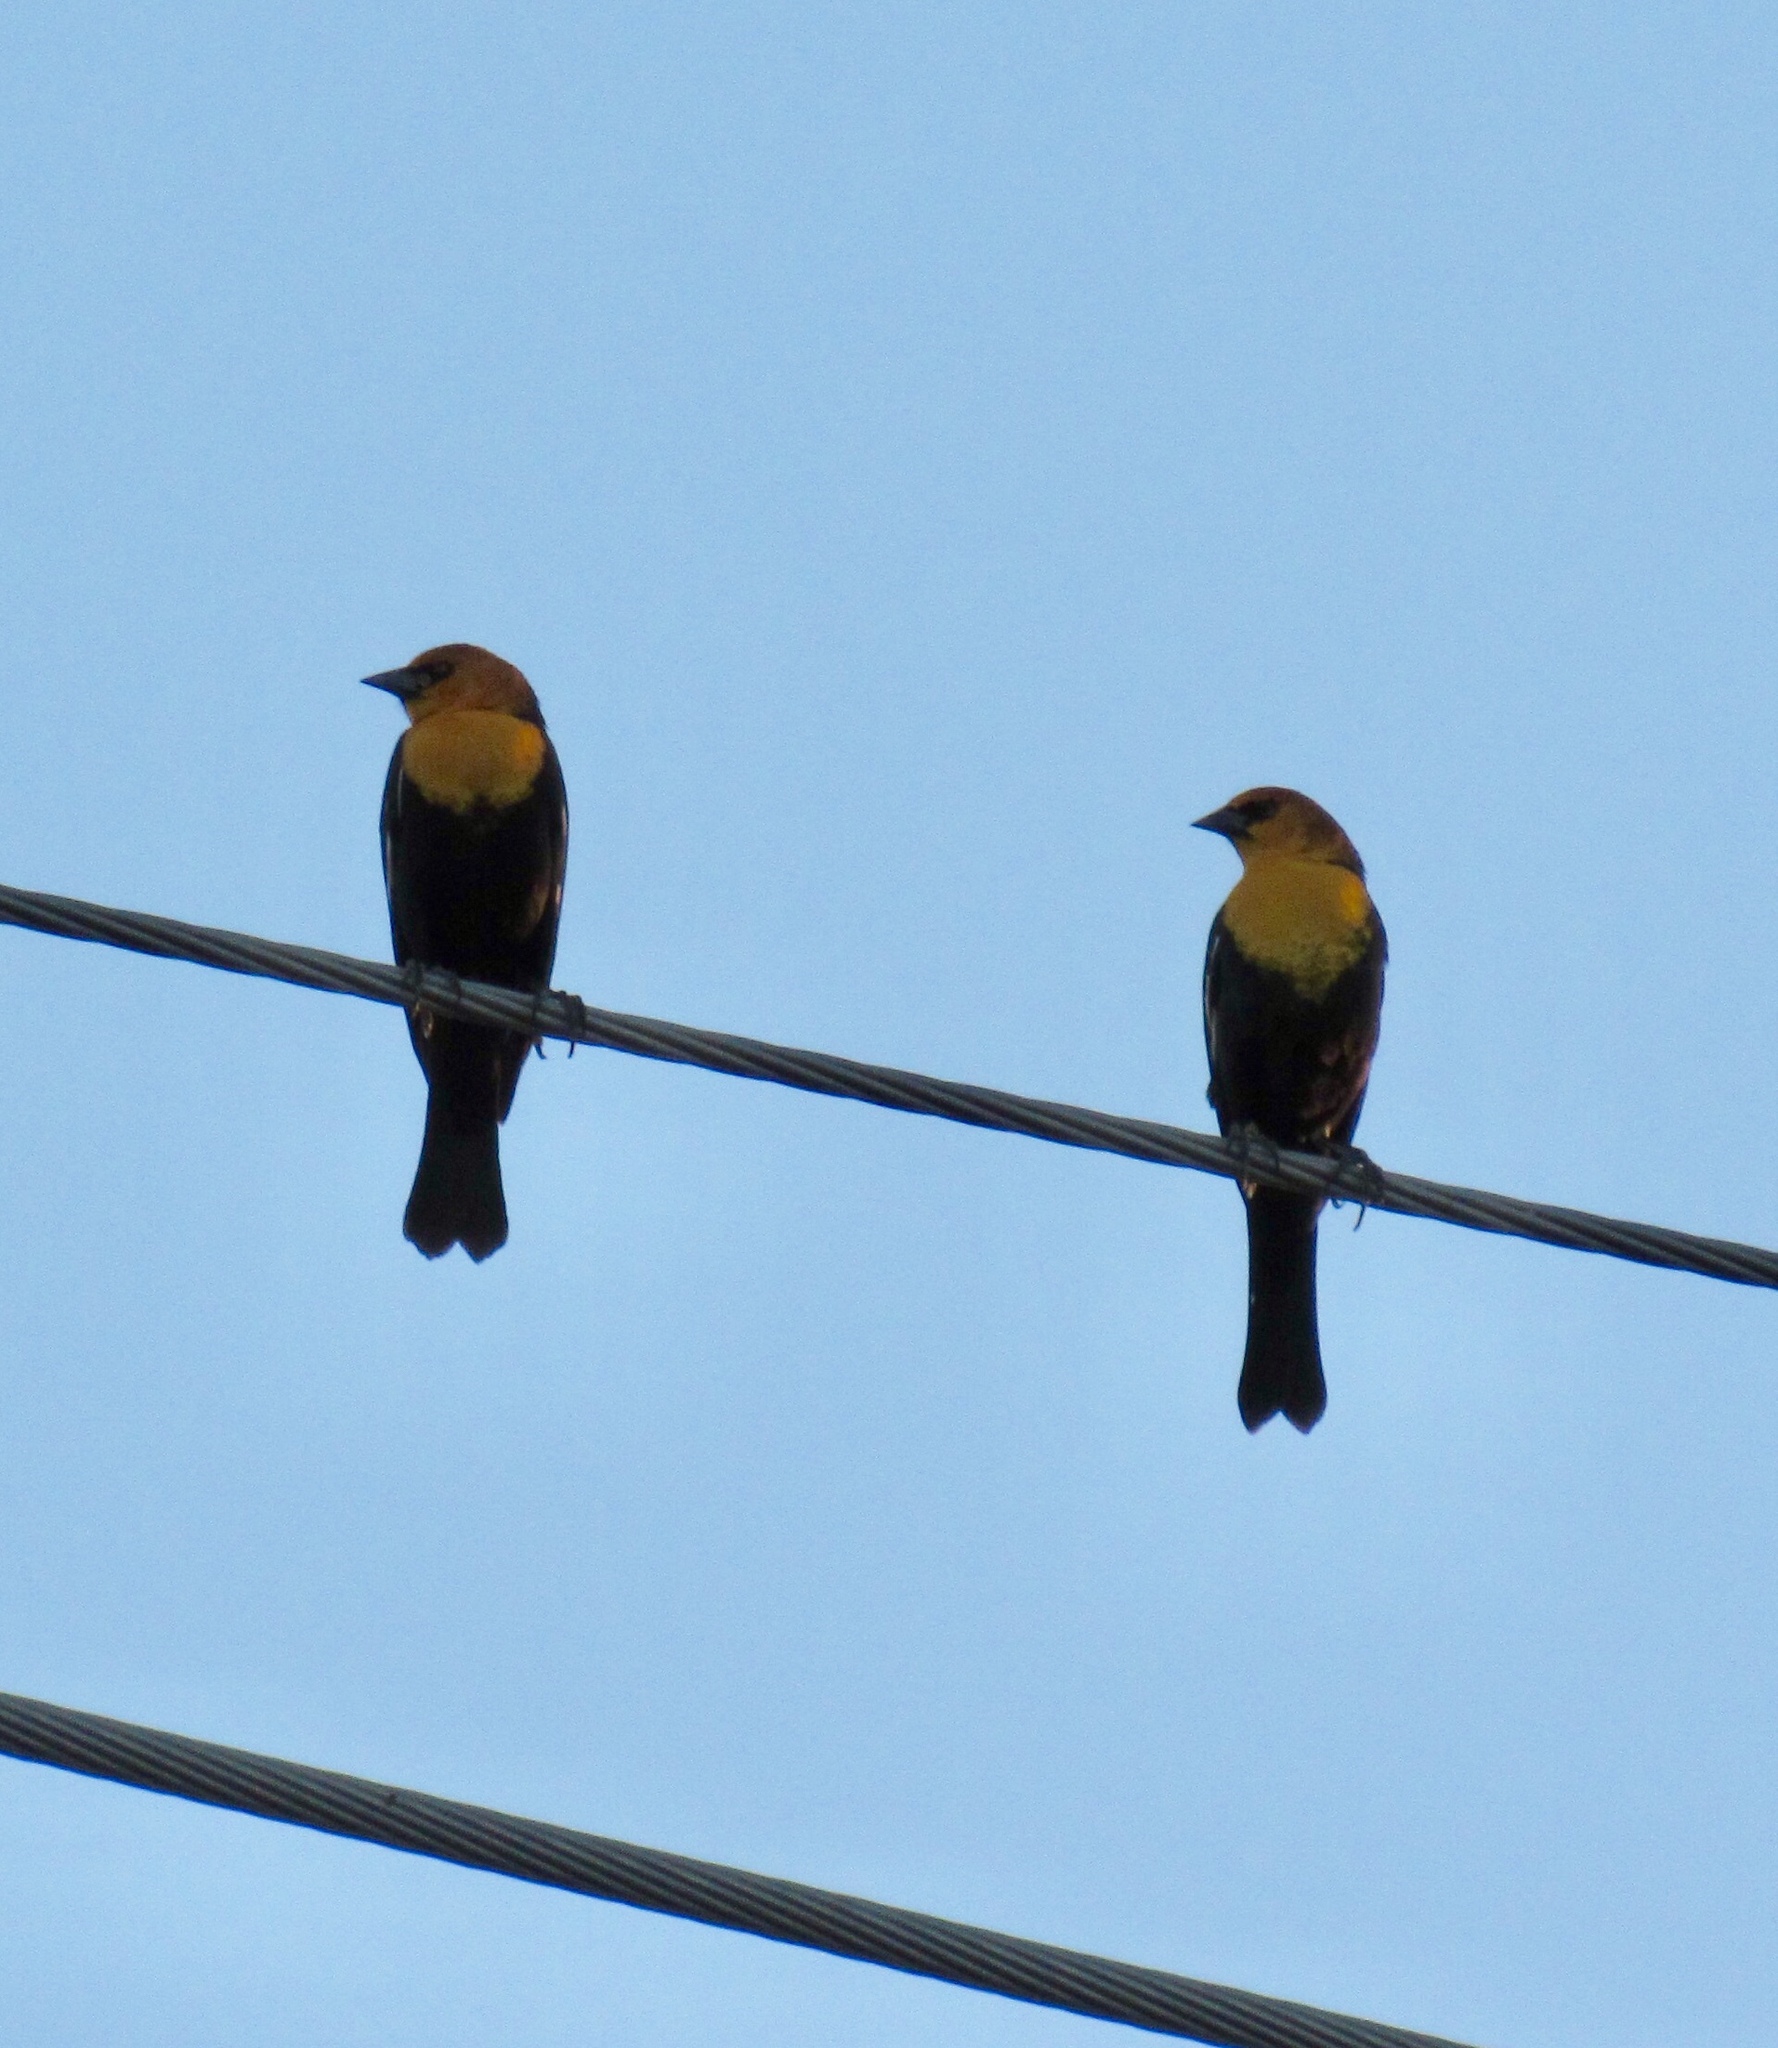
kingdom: Animalia
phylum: Chordata
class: Aves
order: Passeriformes
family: Icteridae
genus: Xanthocephalus
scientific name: Xanthocephalus xanthocephalus
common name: Yellow-headed blackbird
